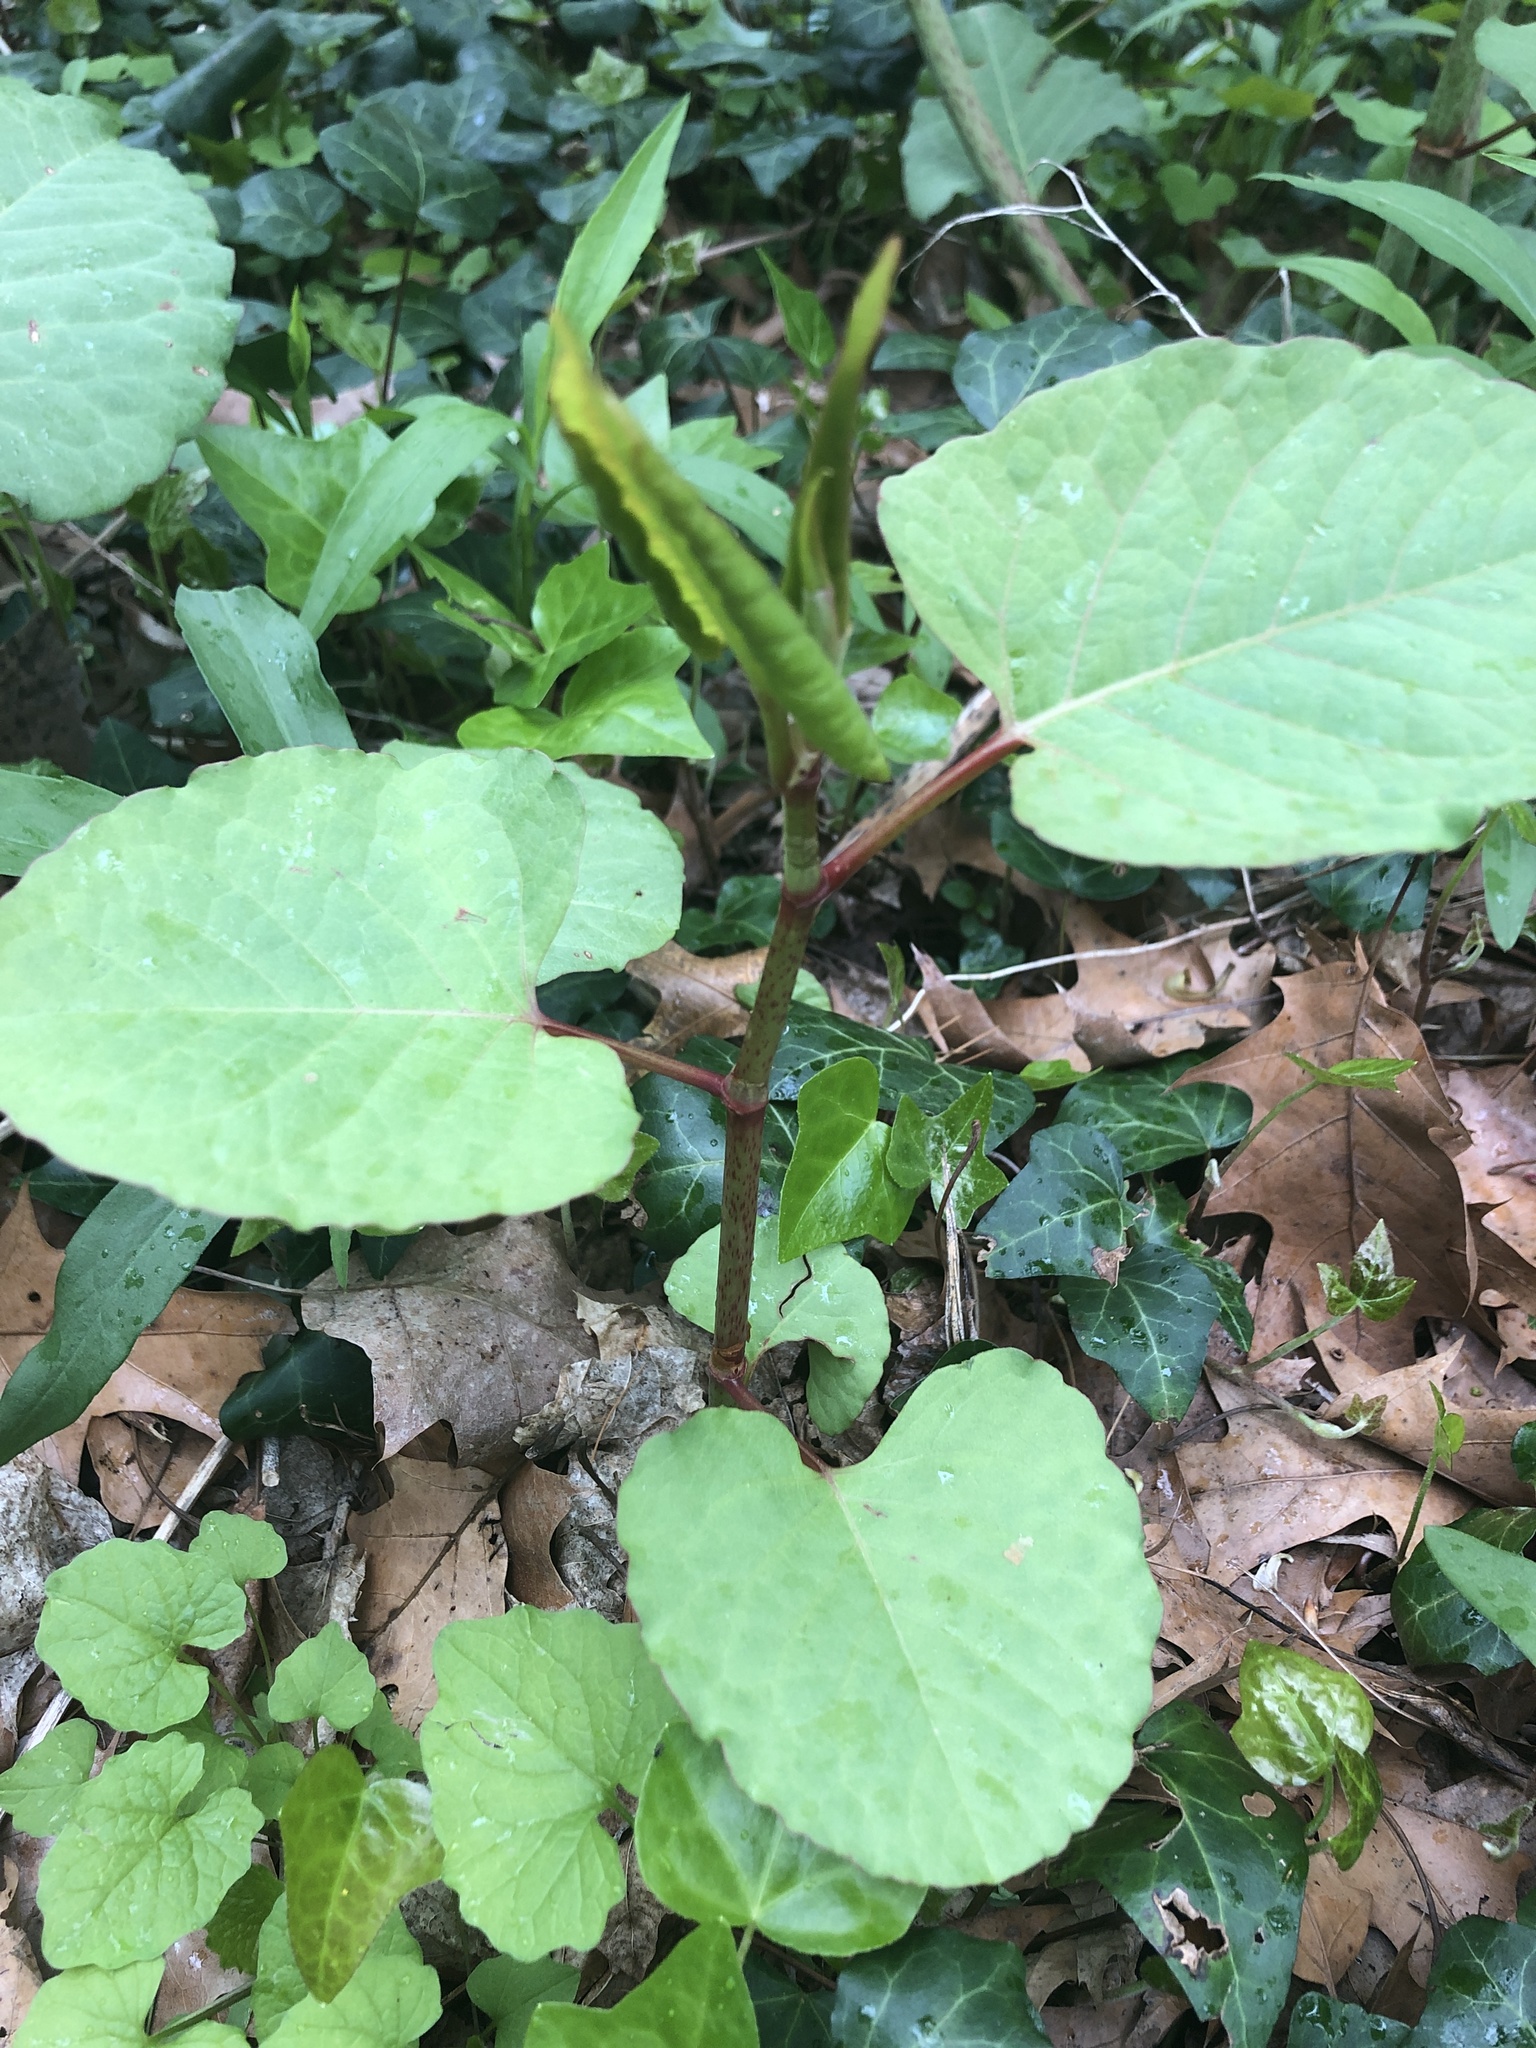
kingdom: Plantae
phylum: Tracheophyta
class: Magnoliopsida
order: Caryophyllales
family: Polygonaceae
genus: Reynoutria
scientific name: Reynoutria japonica
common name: Japanese knotweed
